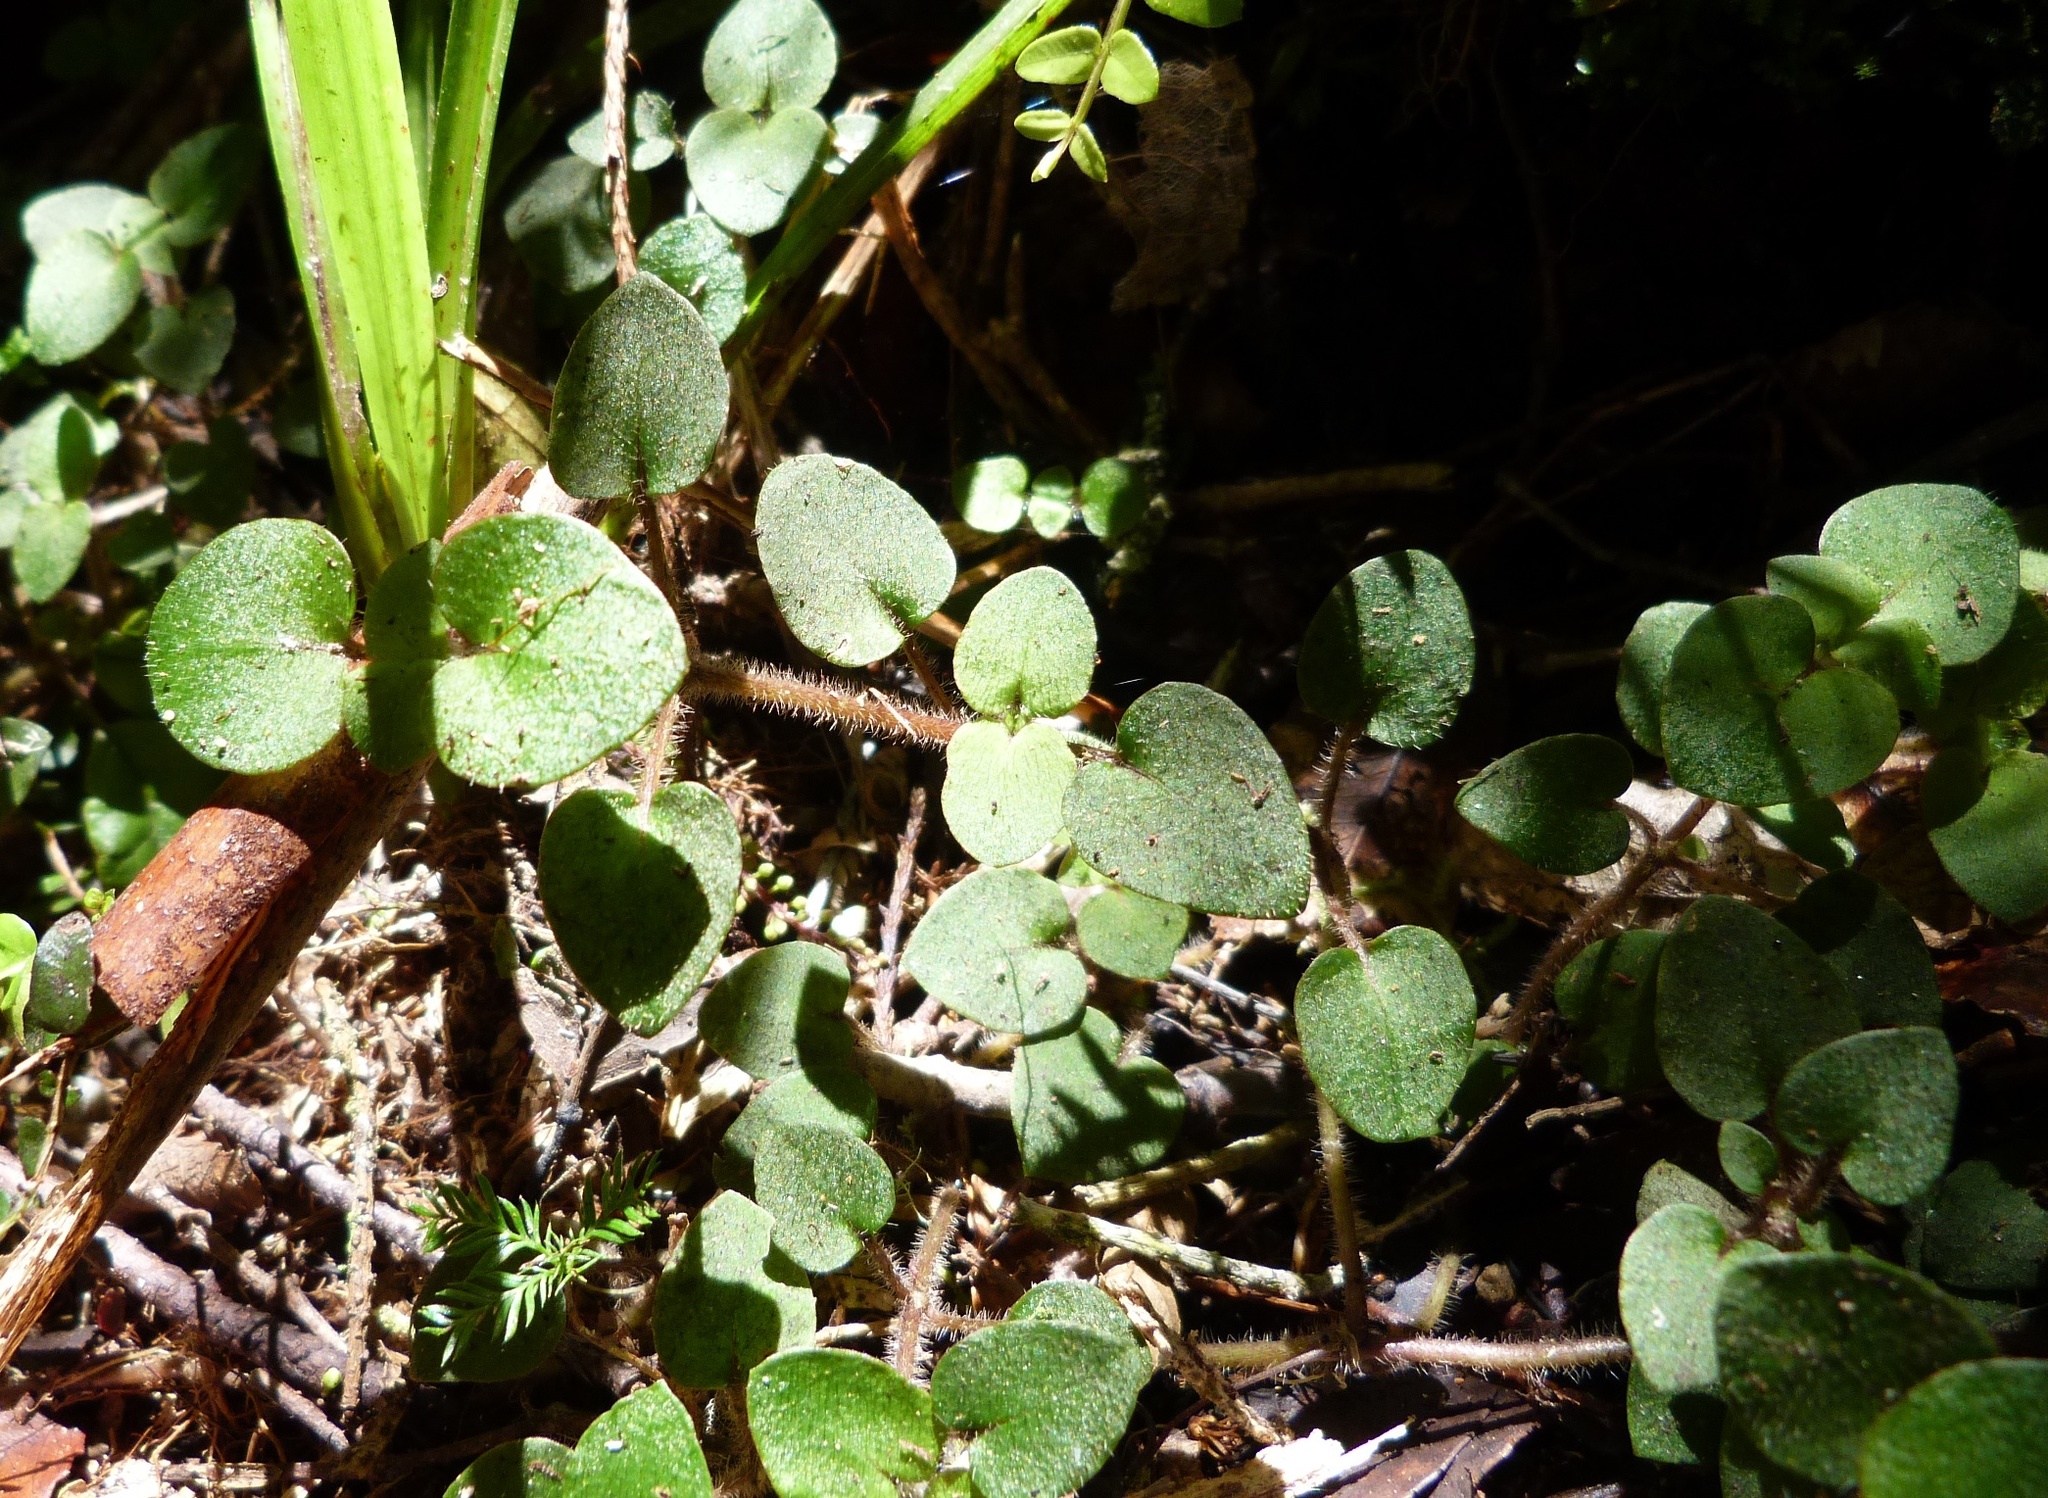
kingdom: Plantae
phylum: Tracheophyta
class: Magnoliopsida
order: Gentianales
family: Rubiaceae
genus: Nertera
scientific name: Nertera villosa
